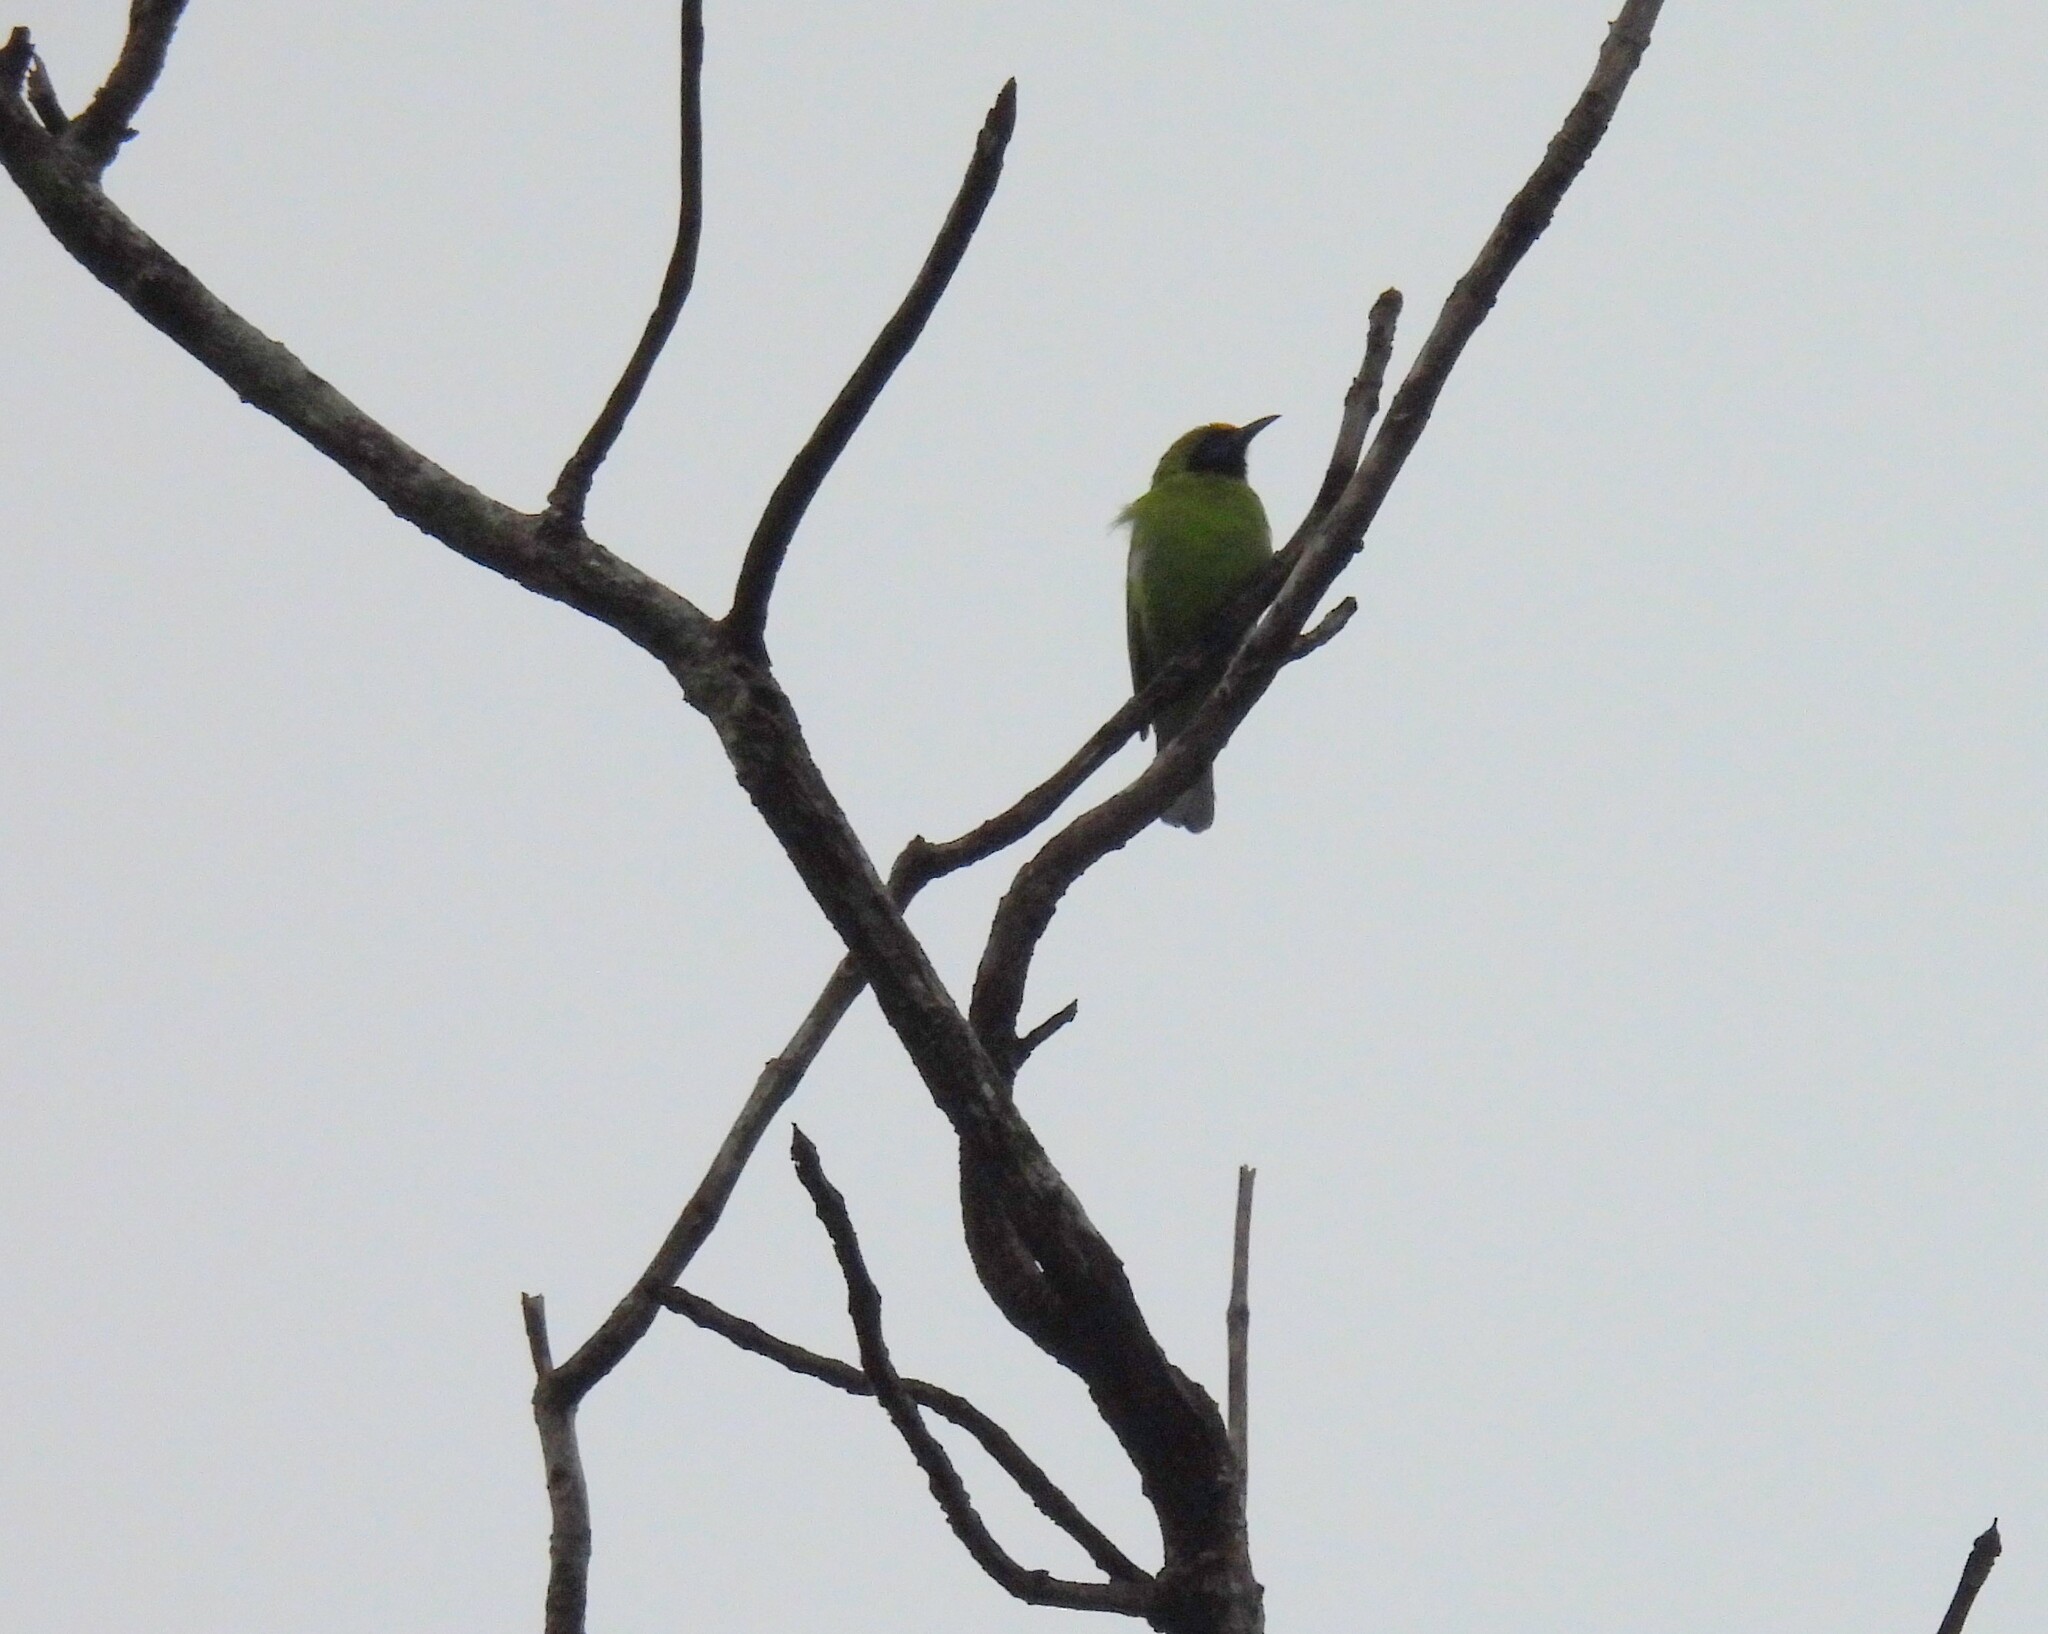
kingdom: Animalia
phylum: Chordata
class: Aves
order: Passeriformes
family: Chloropseidae
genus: Chloropsis
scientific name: Chloropsis aurifrons
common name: Golden-fronted leafbird
